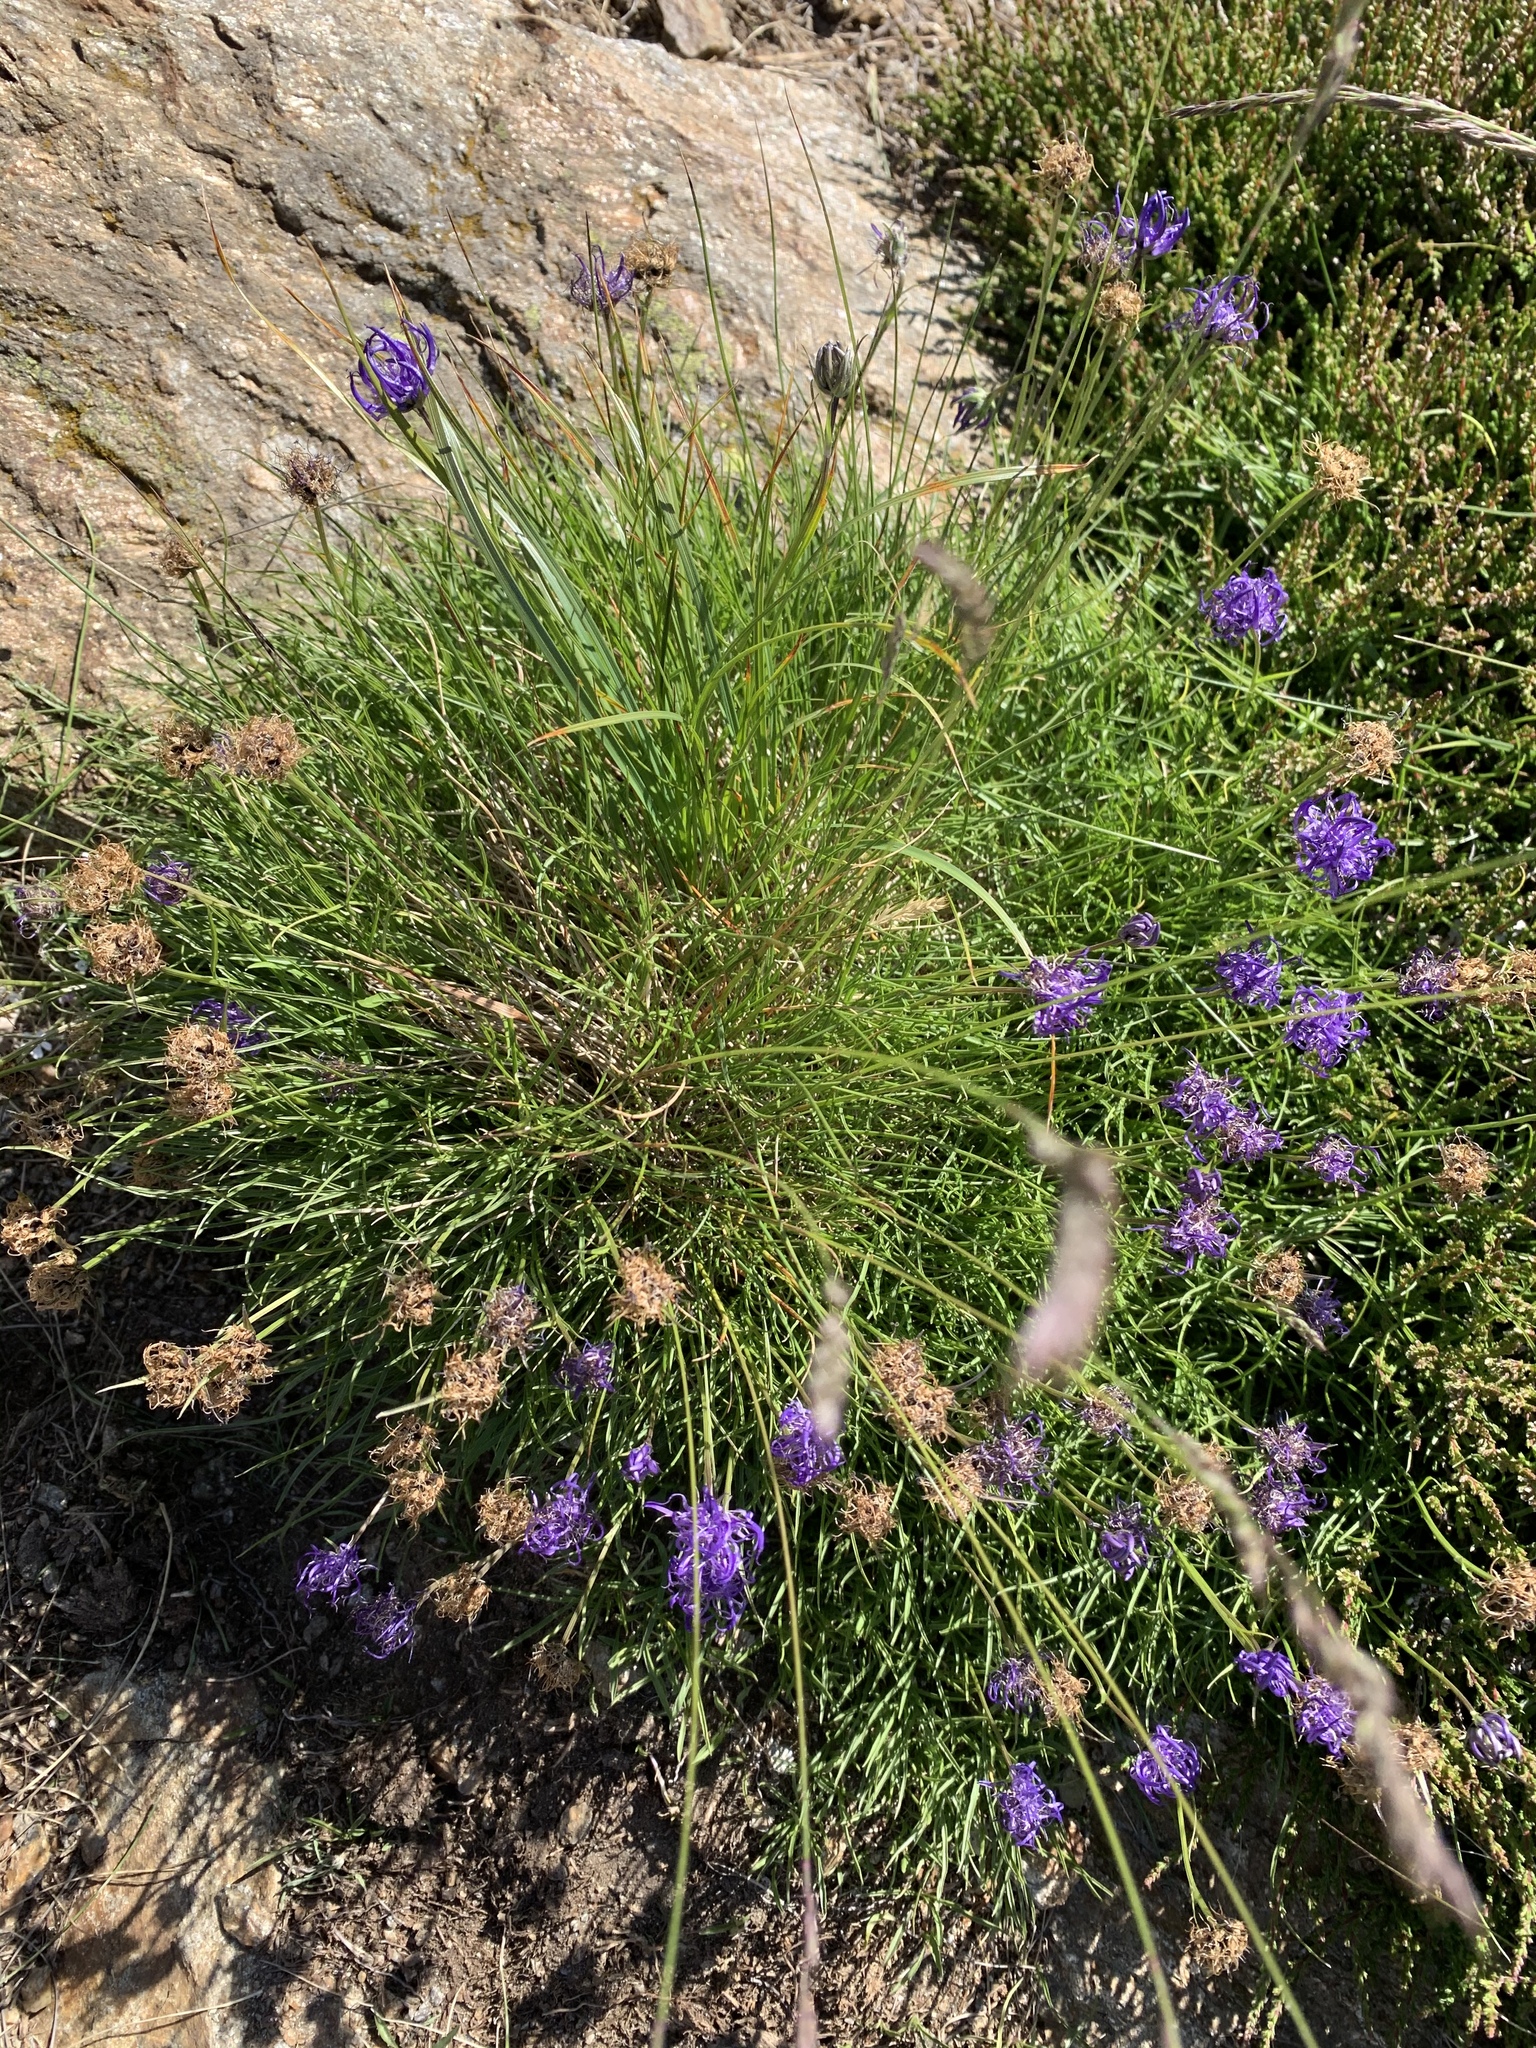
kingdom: Plantae
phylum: Tracheophyta
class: Magnoliopsida
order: Asterales
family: Campanulaceae
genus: Phyteuma
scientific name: Phyteuma hemisphaericum
